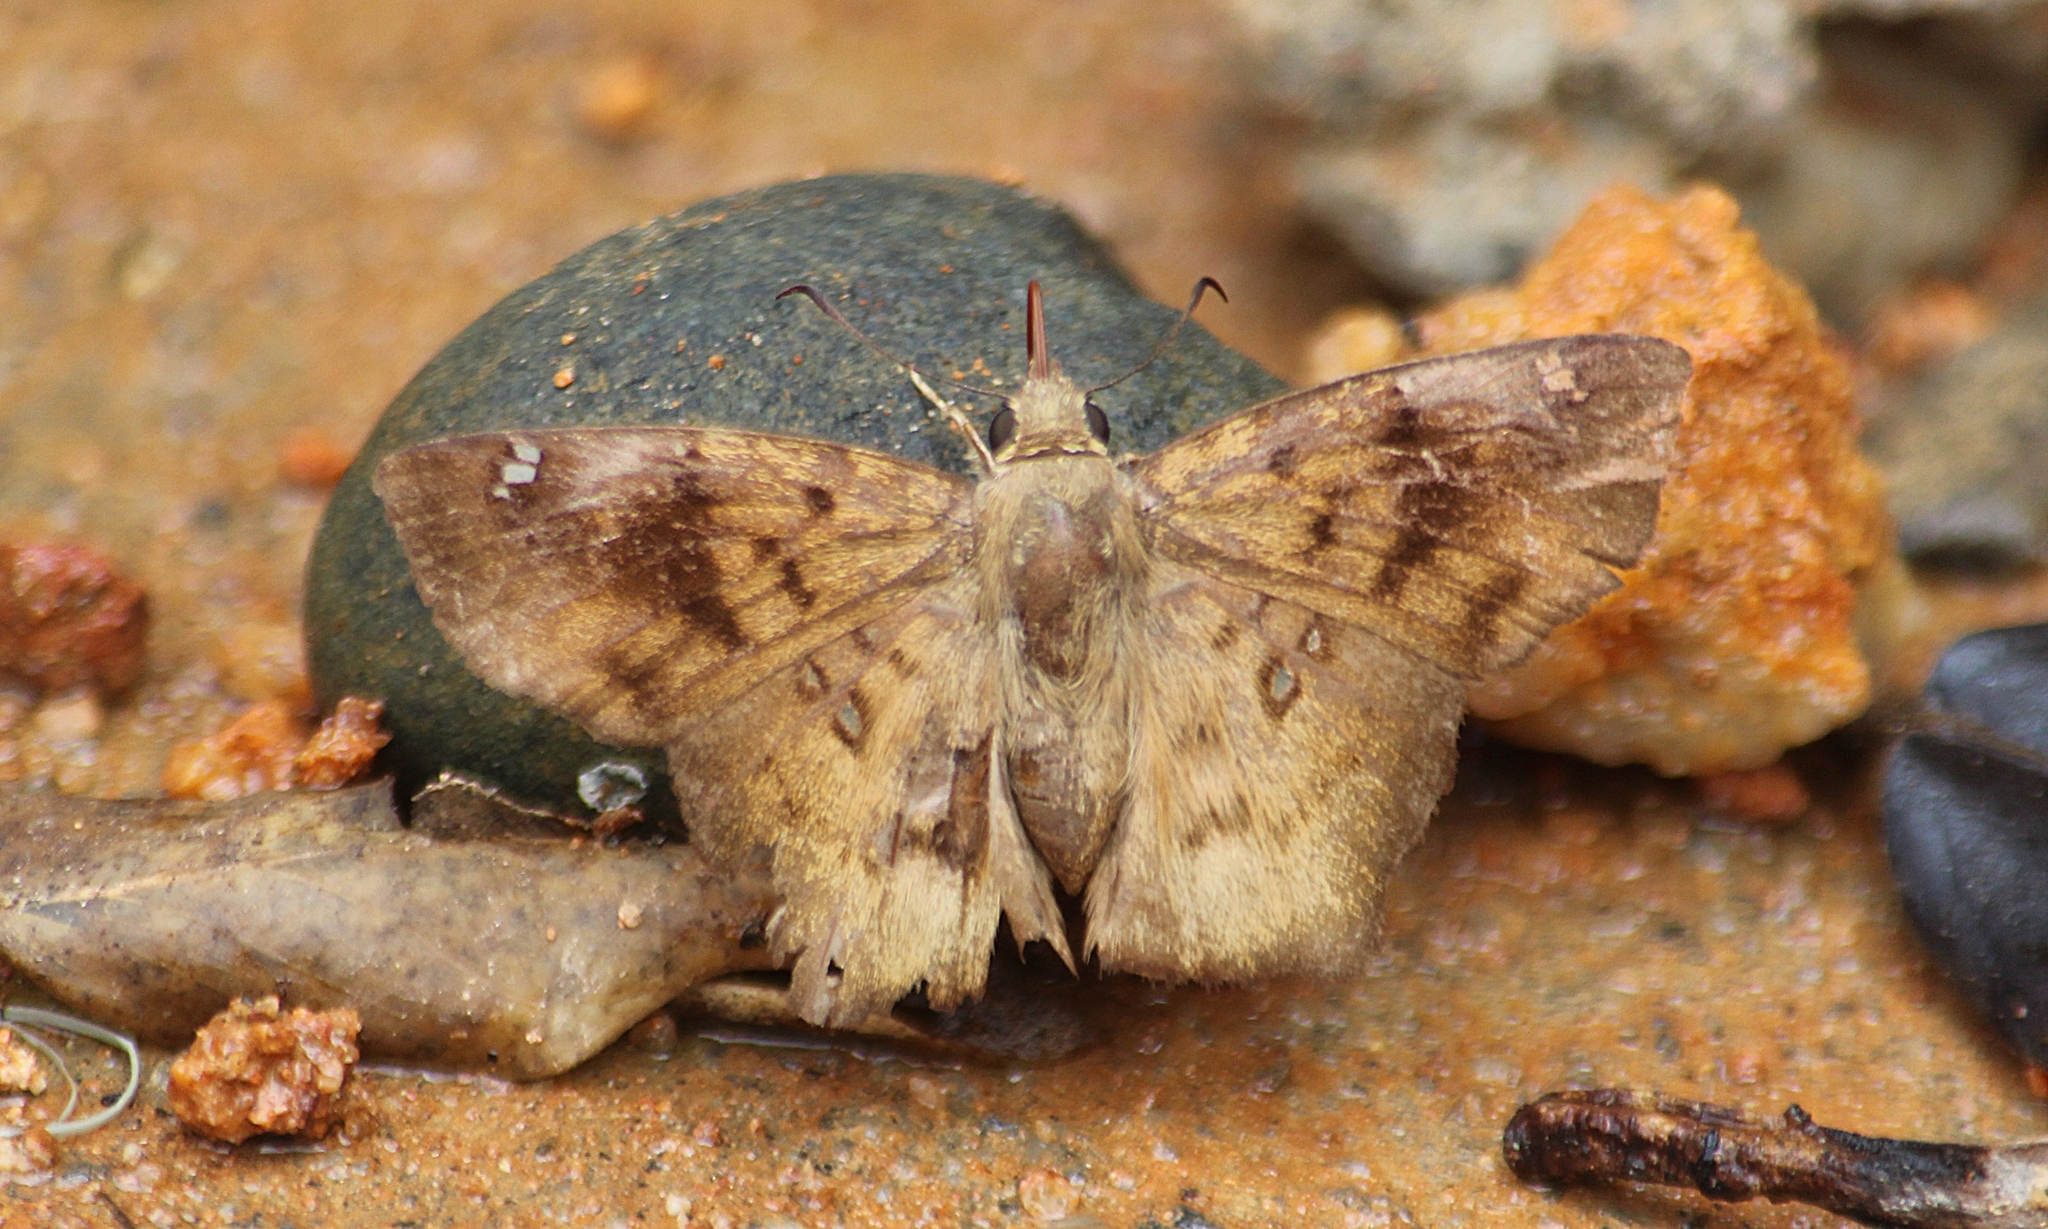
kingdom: Animalia
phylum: Arthropoda
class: Insecta
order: Lepidoptera
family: Hesperiidae
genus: Tapena
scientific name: Tapena thwaitesi
